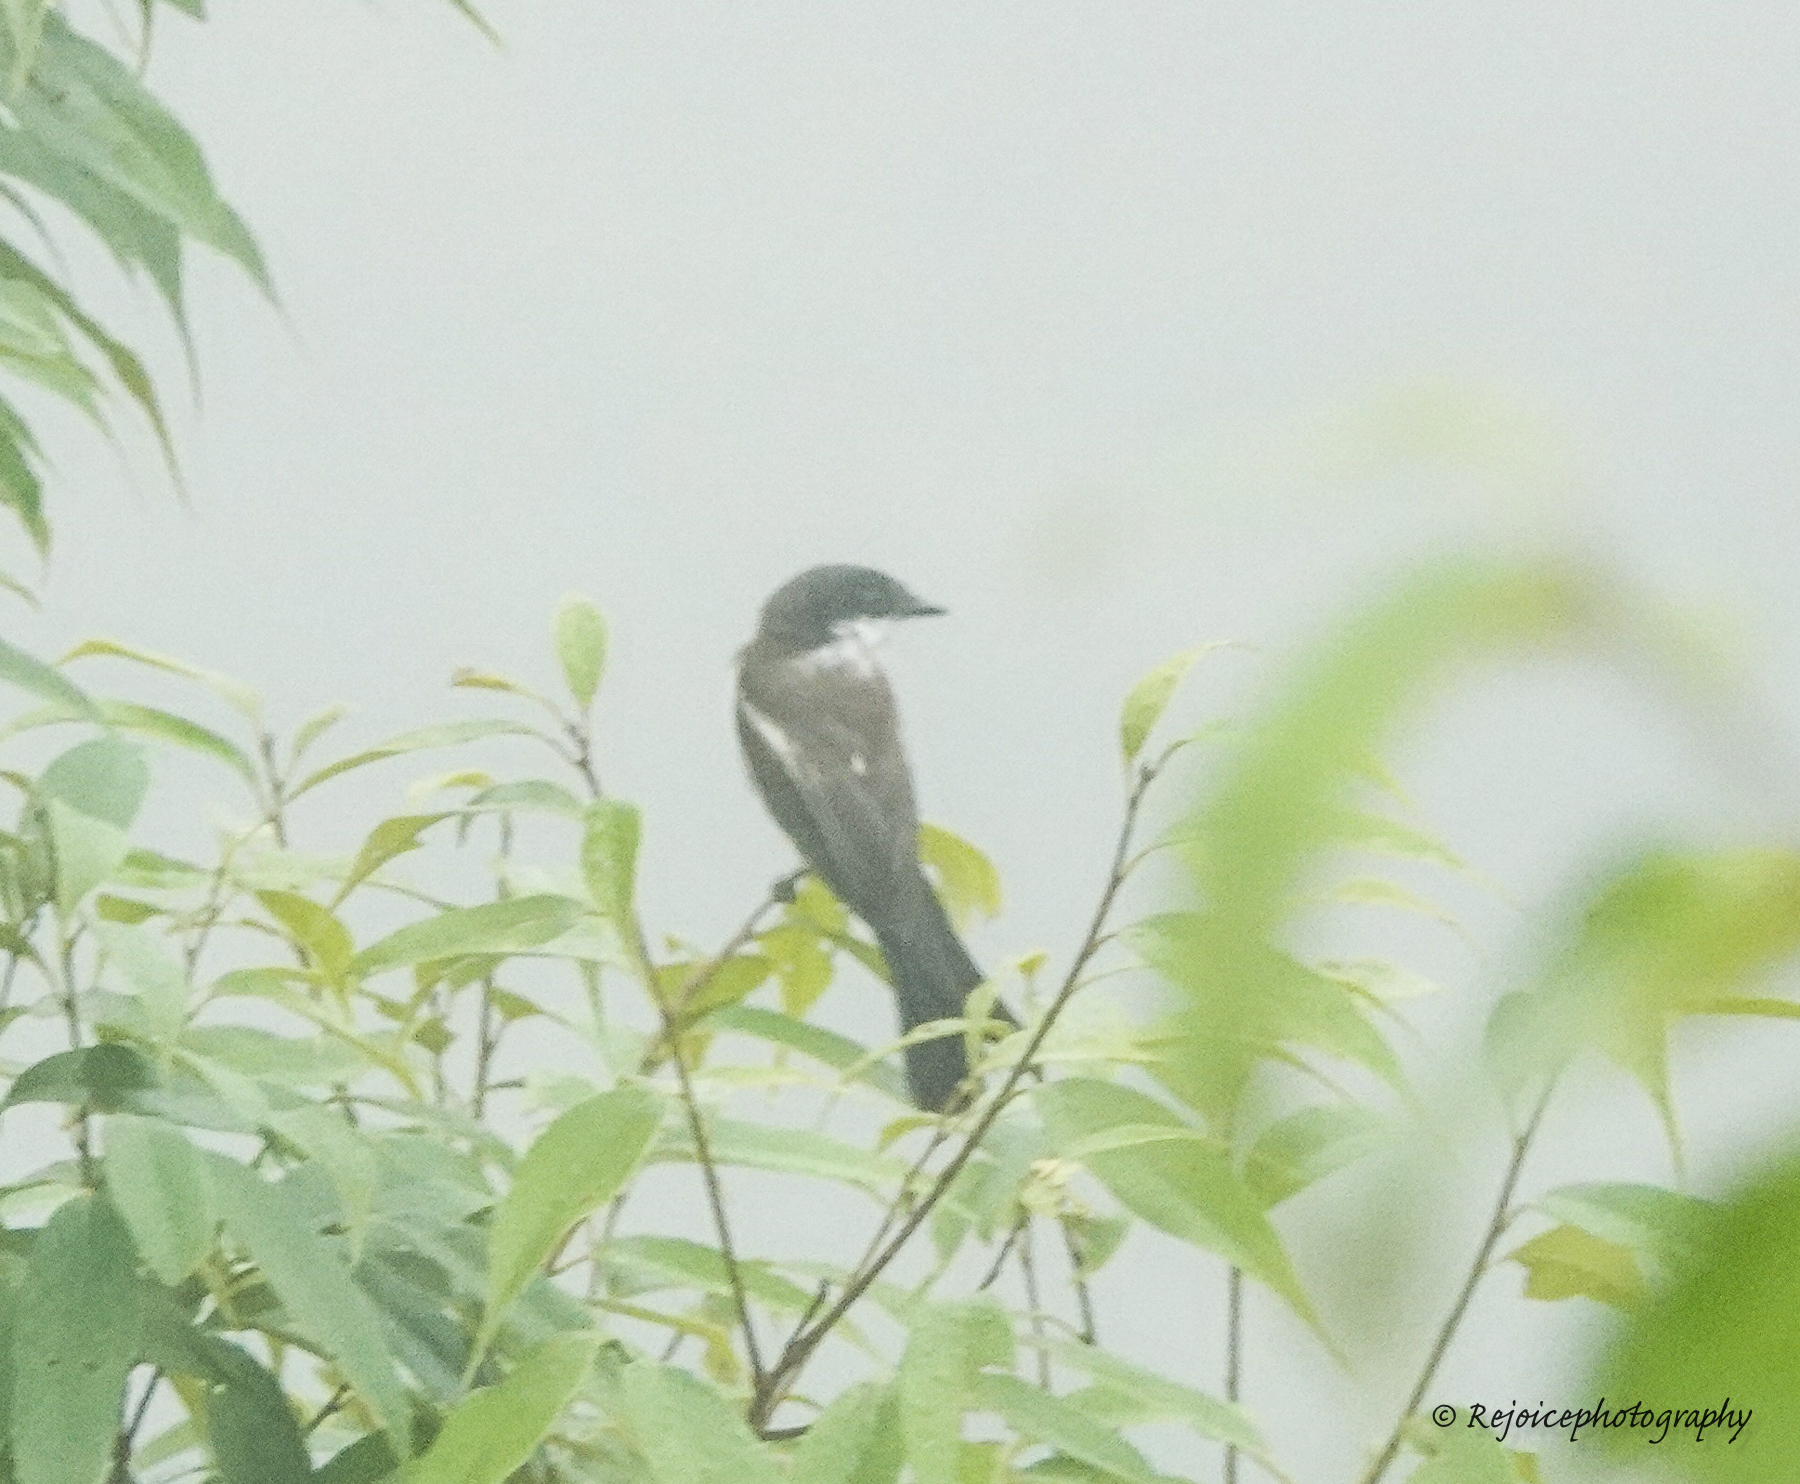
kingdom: Animalia
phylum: Chordata
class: Aves
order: Passeriformes
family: Tephrodornithidae
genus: Hemipus
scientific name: Hemipus picatus
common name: Bar-winged flycatcher-shrike
